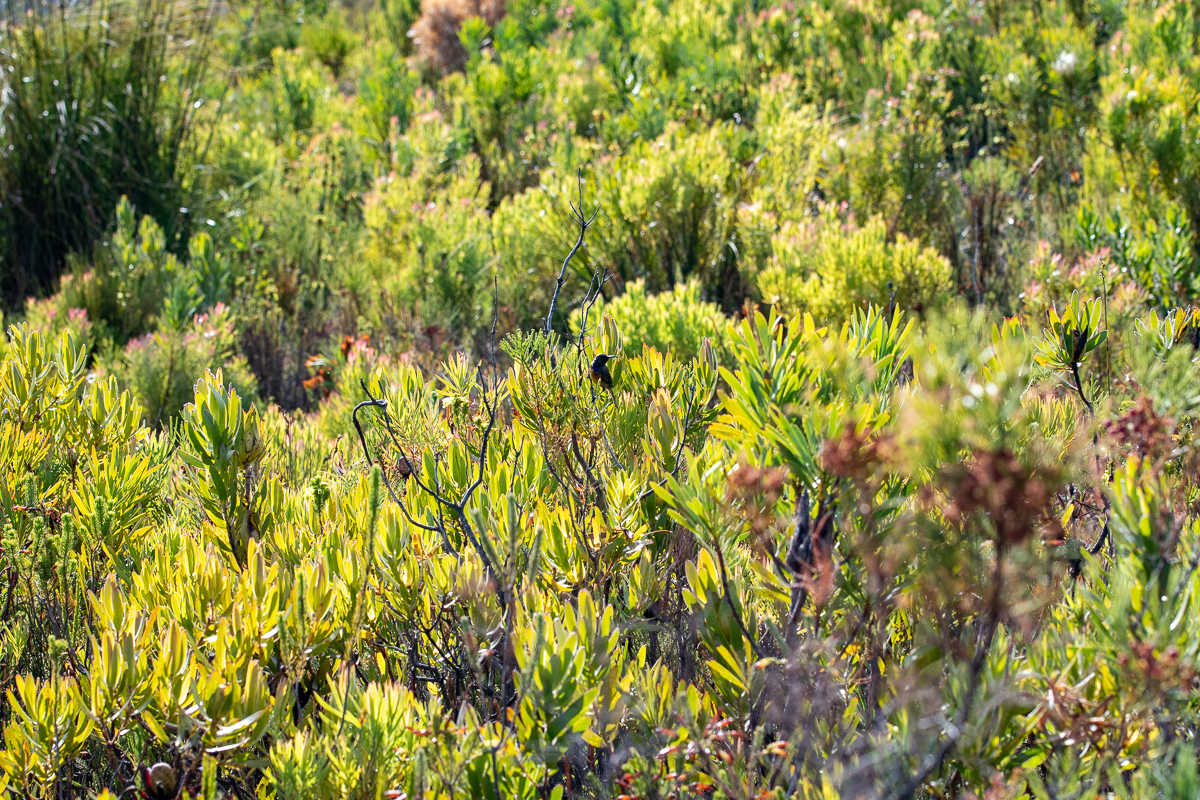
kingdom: Animalia
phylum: Chordata
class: Aves
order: Passeriformes
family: Nectariniidae
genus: Anthobaphes
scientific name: Anthobaphes violacea
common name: Orange-breasted sunbird
